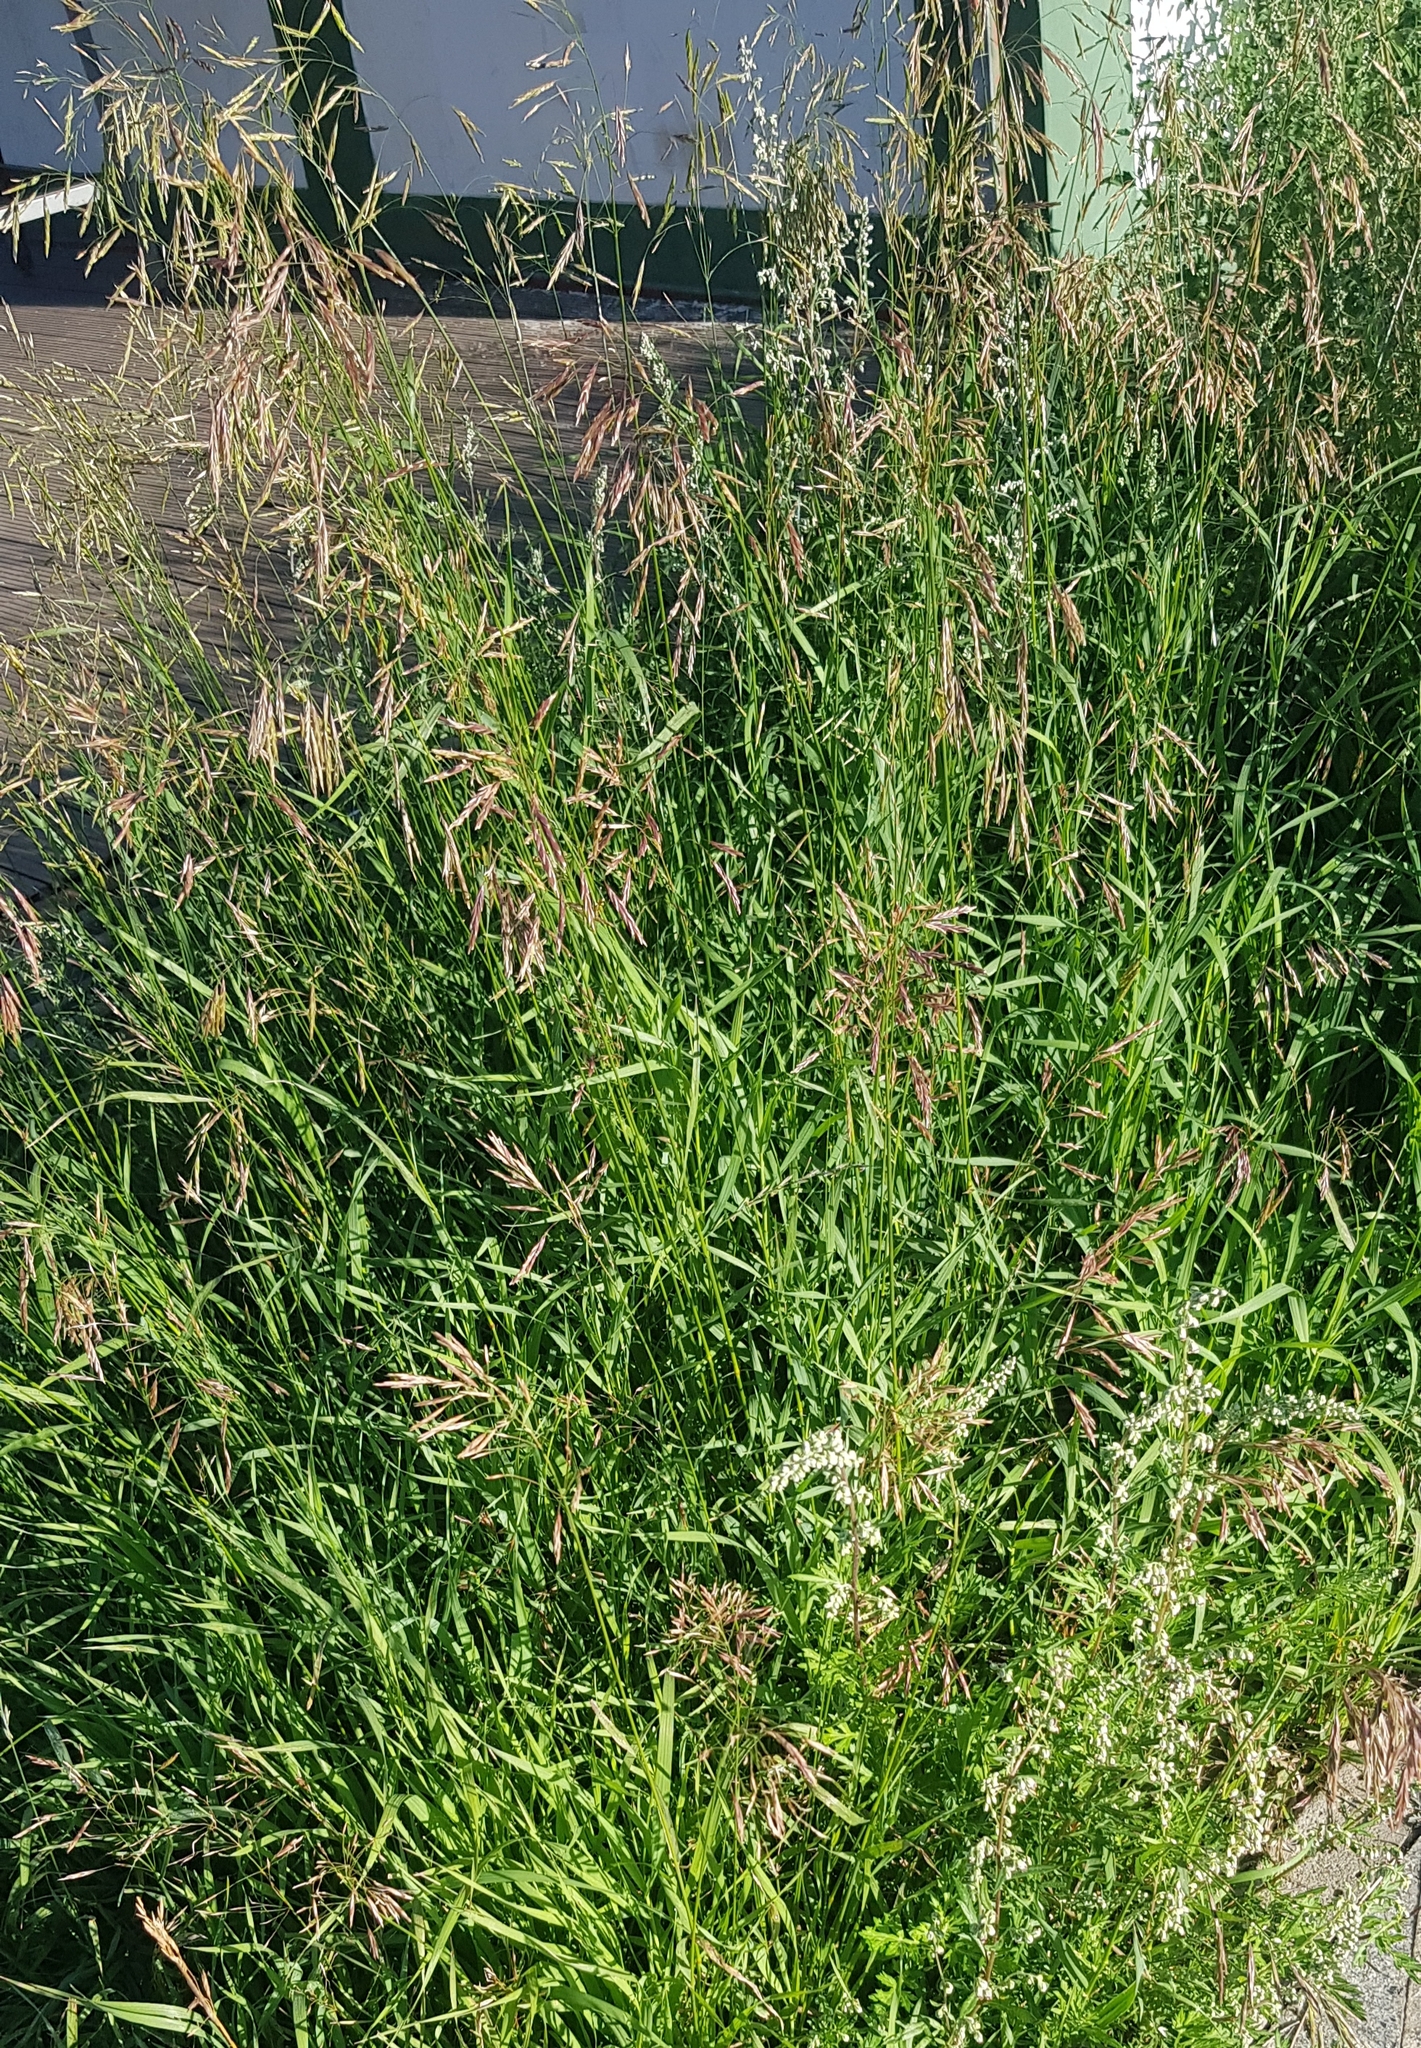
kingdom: Plantae
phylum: Tracheophyta
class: Liliopsida
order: Poales
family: Poaceae
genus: Poa
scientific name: Poa pratensis
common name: Kentucky bluegrass
